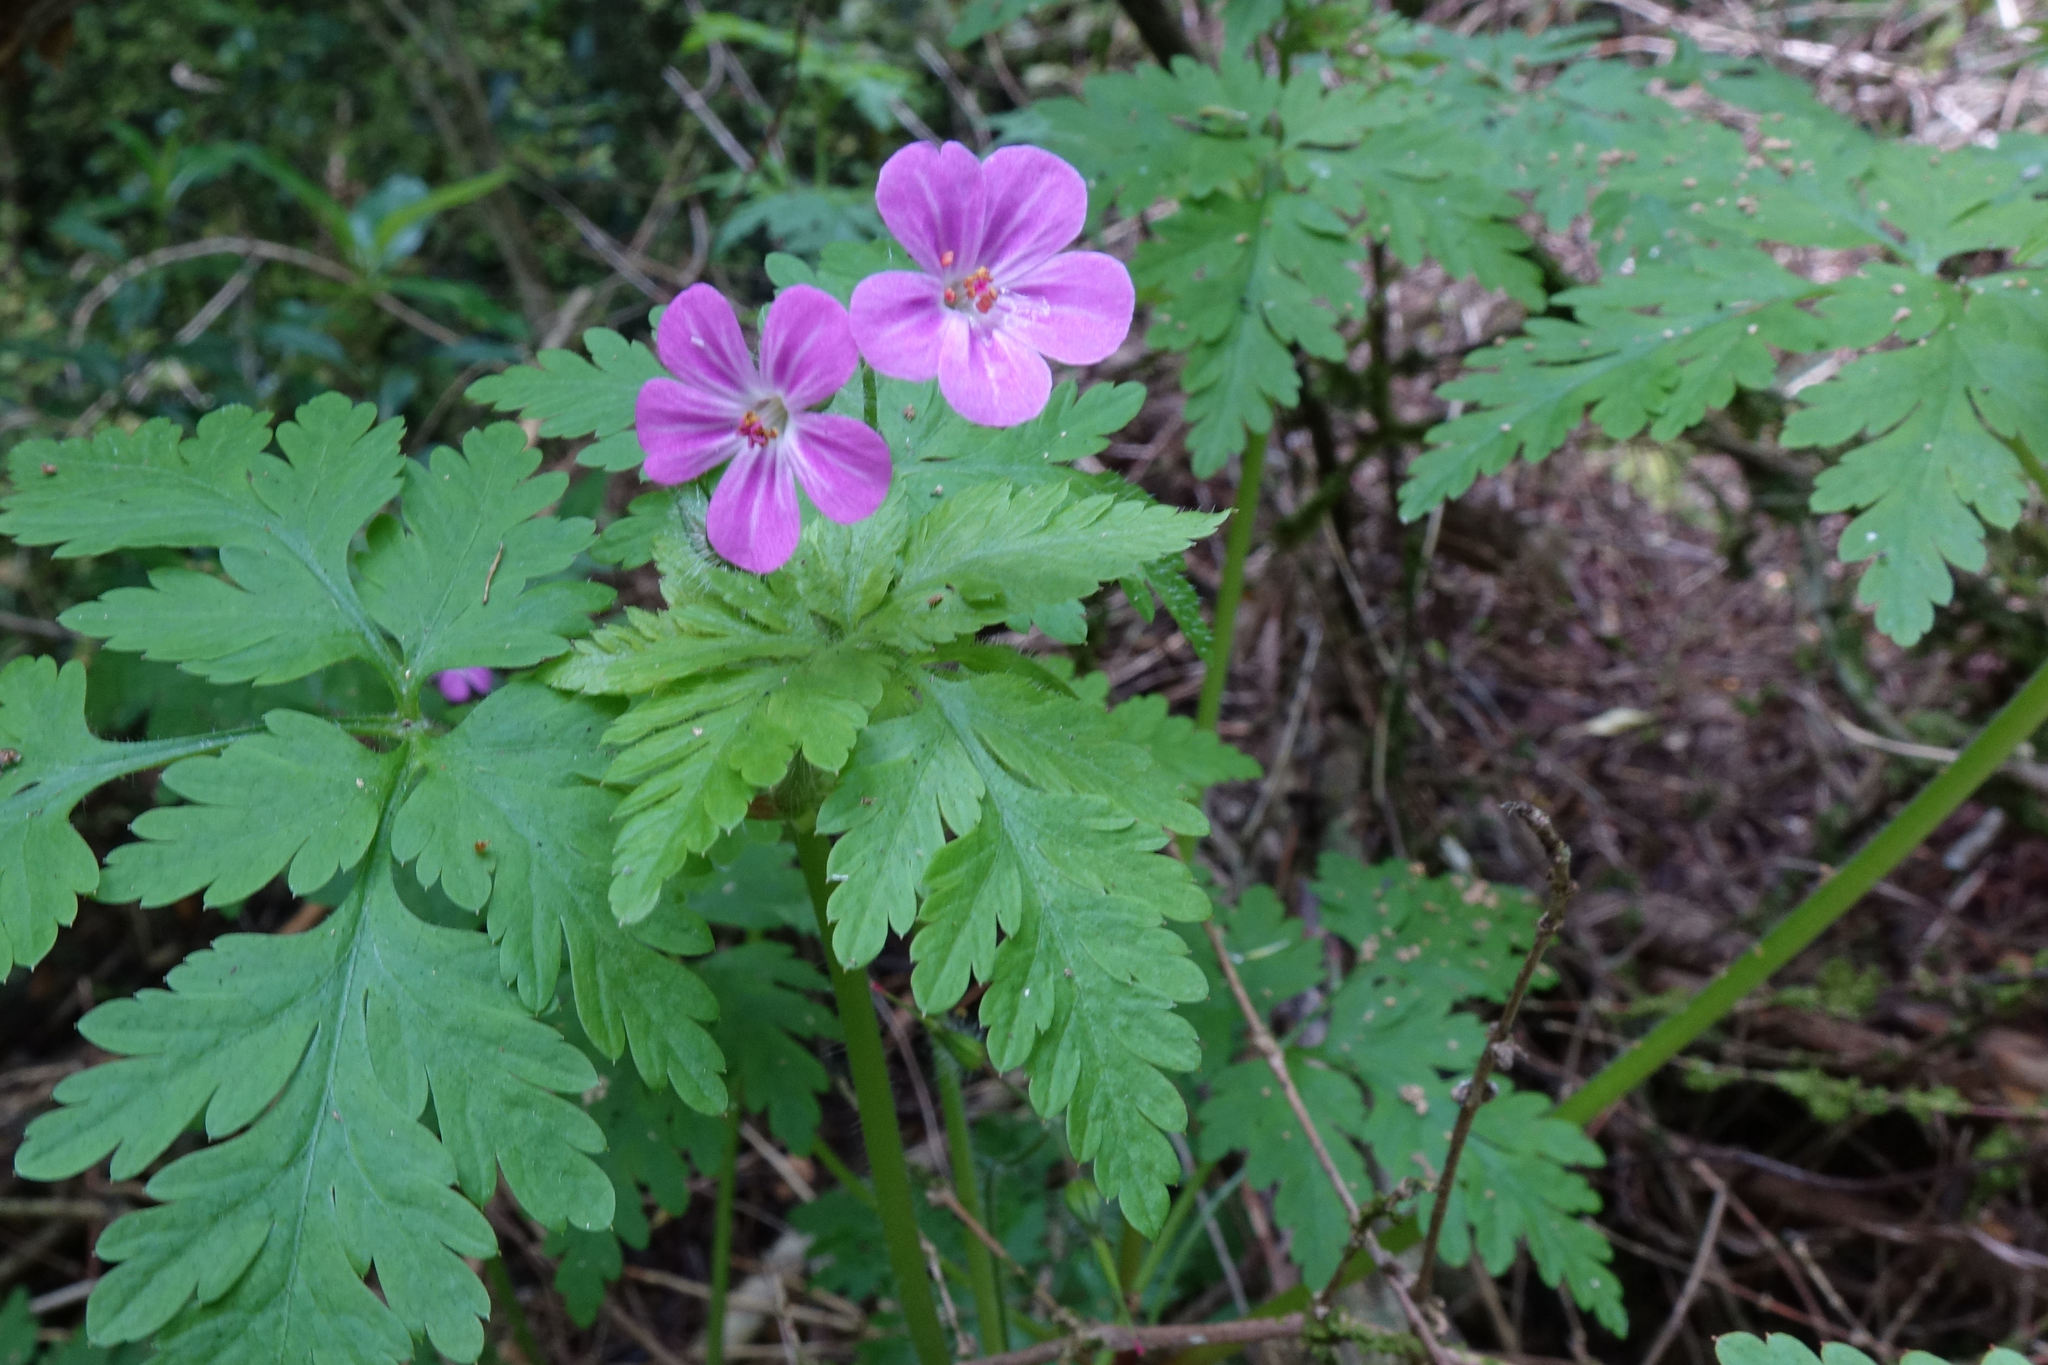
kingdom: Plantae
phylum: Tracheophyta
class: Magnoliopsida
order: Geraniales
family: Geraniaceae
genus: Geranium
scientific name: Geranium robertianum
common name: Herb-robert
